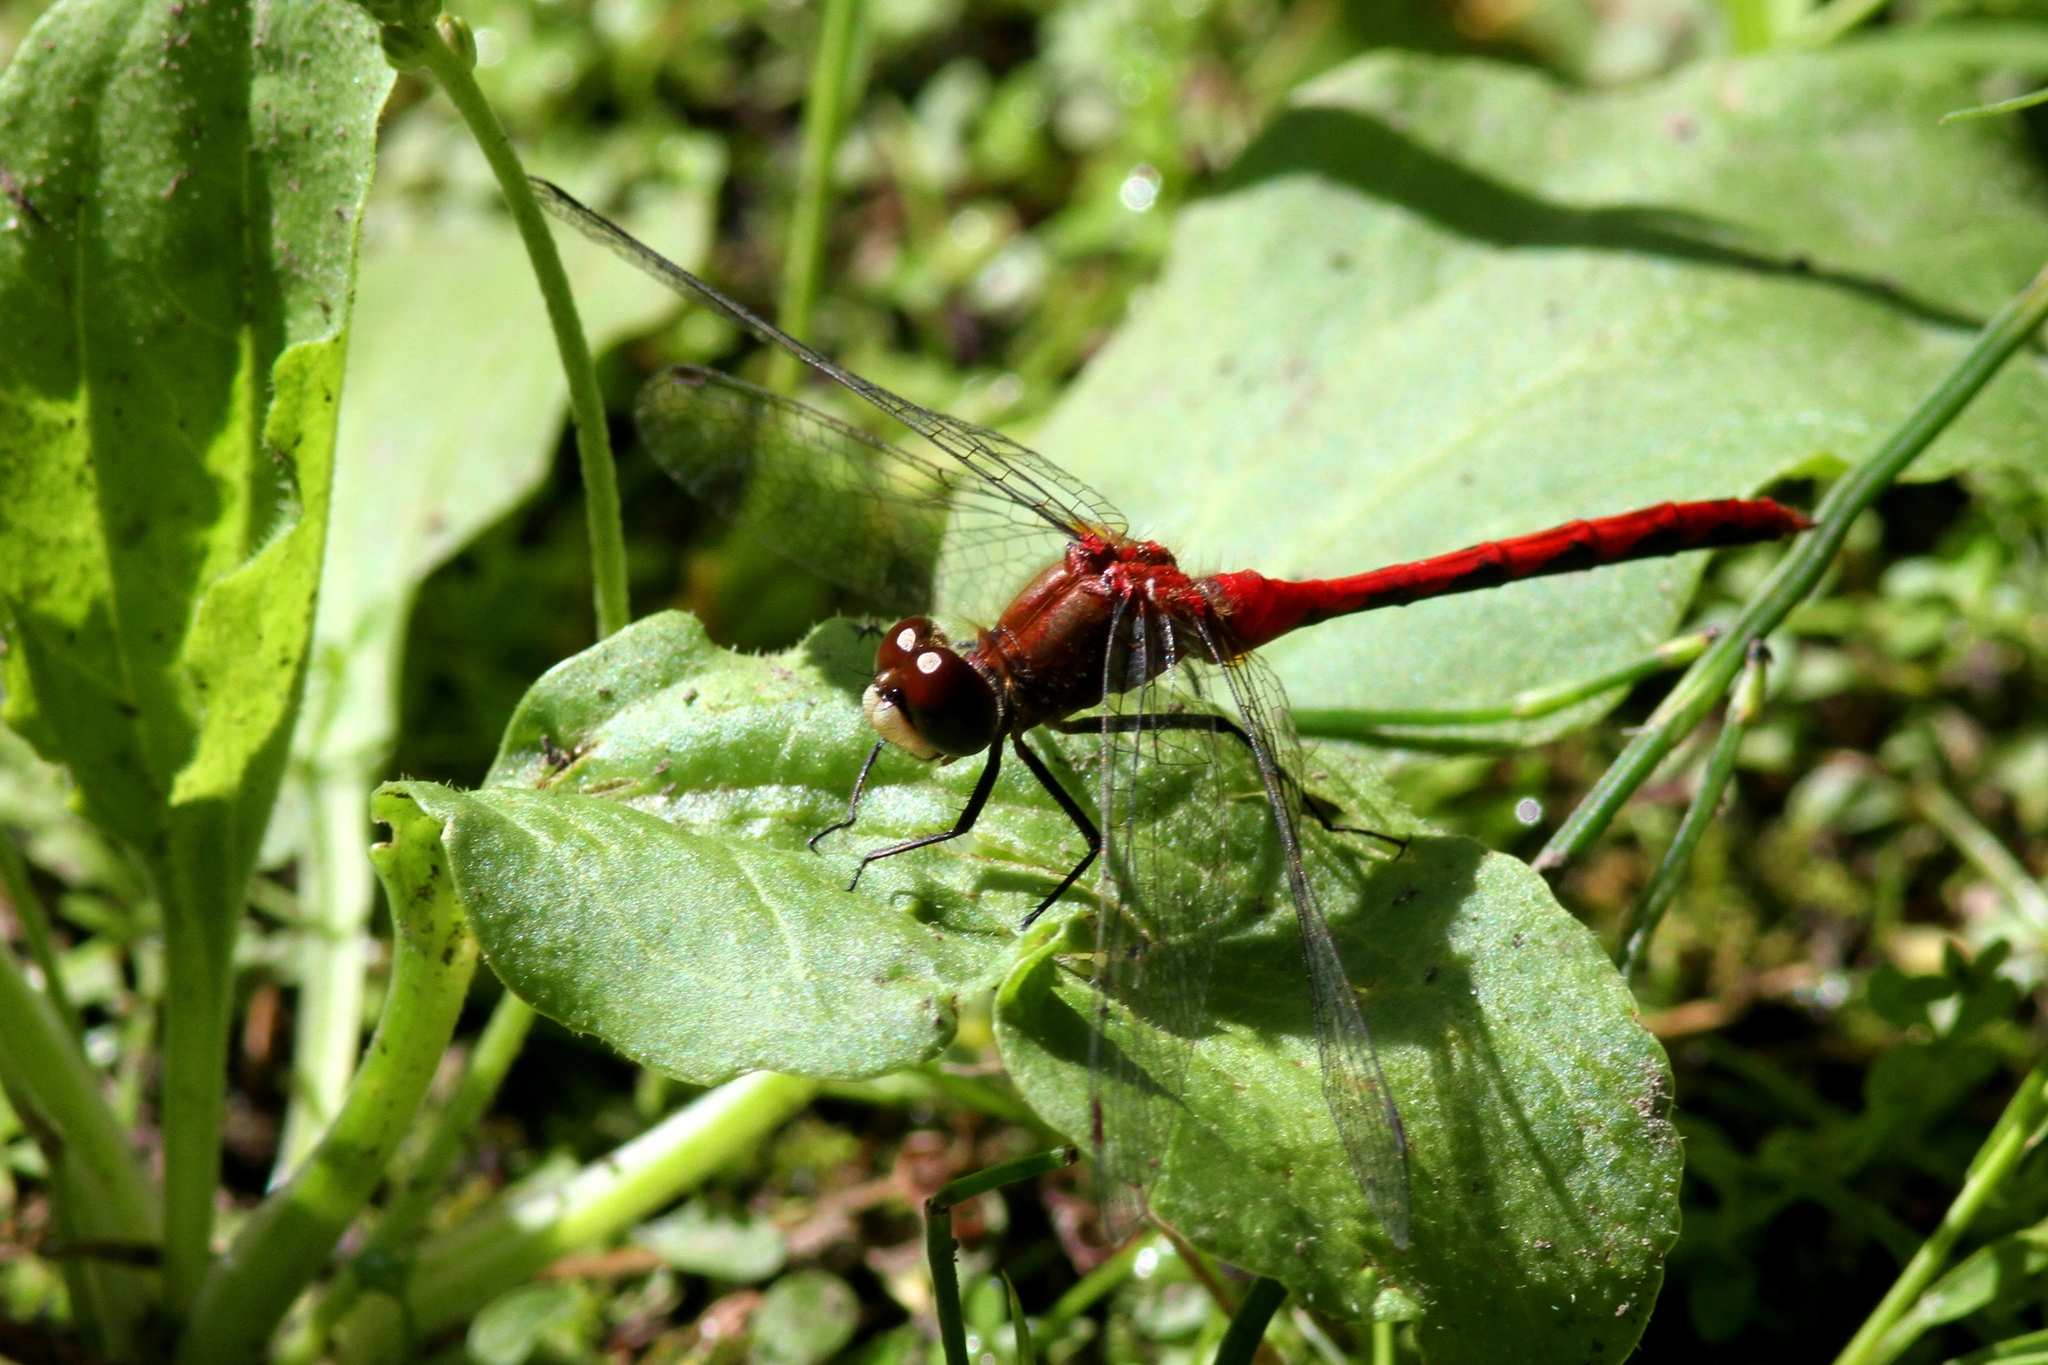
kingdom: Animalia
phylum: Arthropoda
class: Insecta
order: Odonata
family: Libellulidae
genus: Sympetrum
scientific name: Sympetrum obtrusum
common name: White-faced meadowhawk
